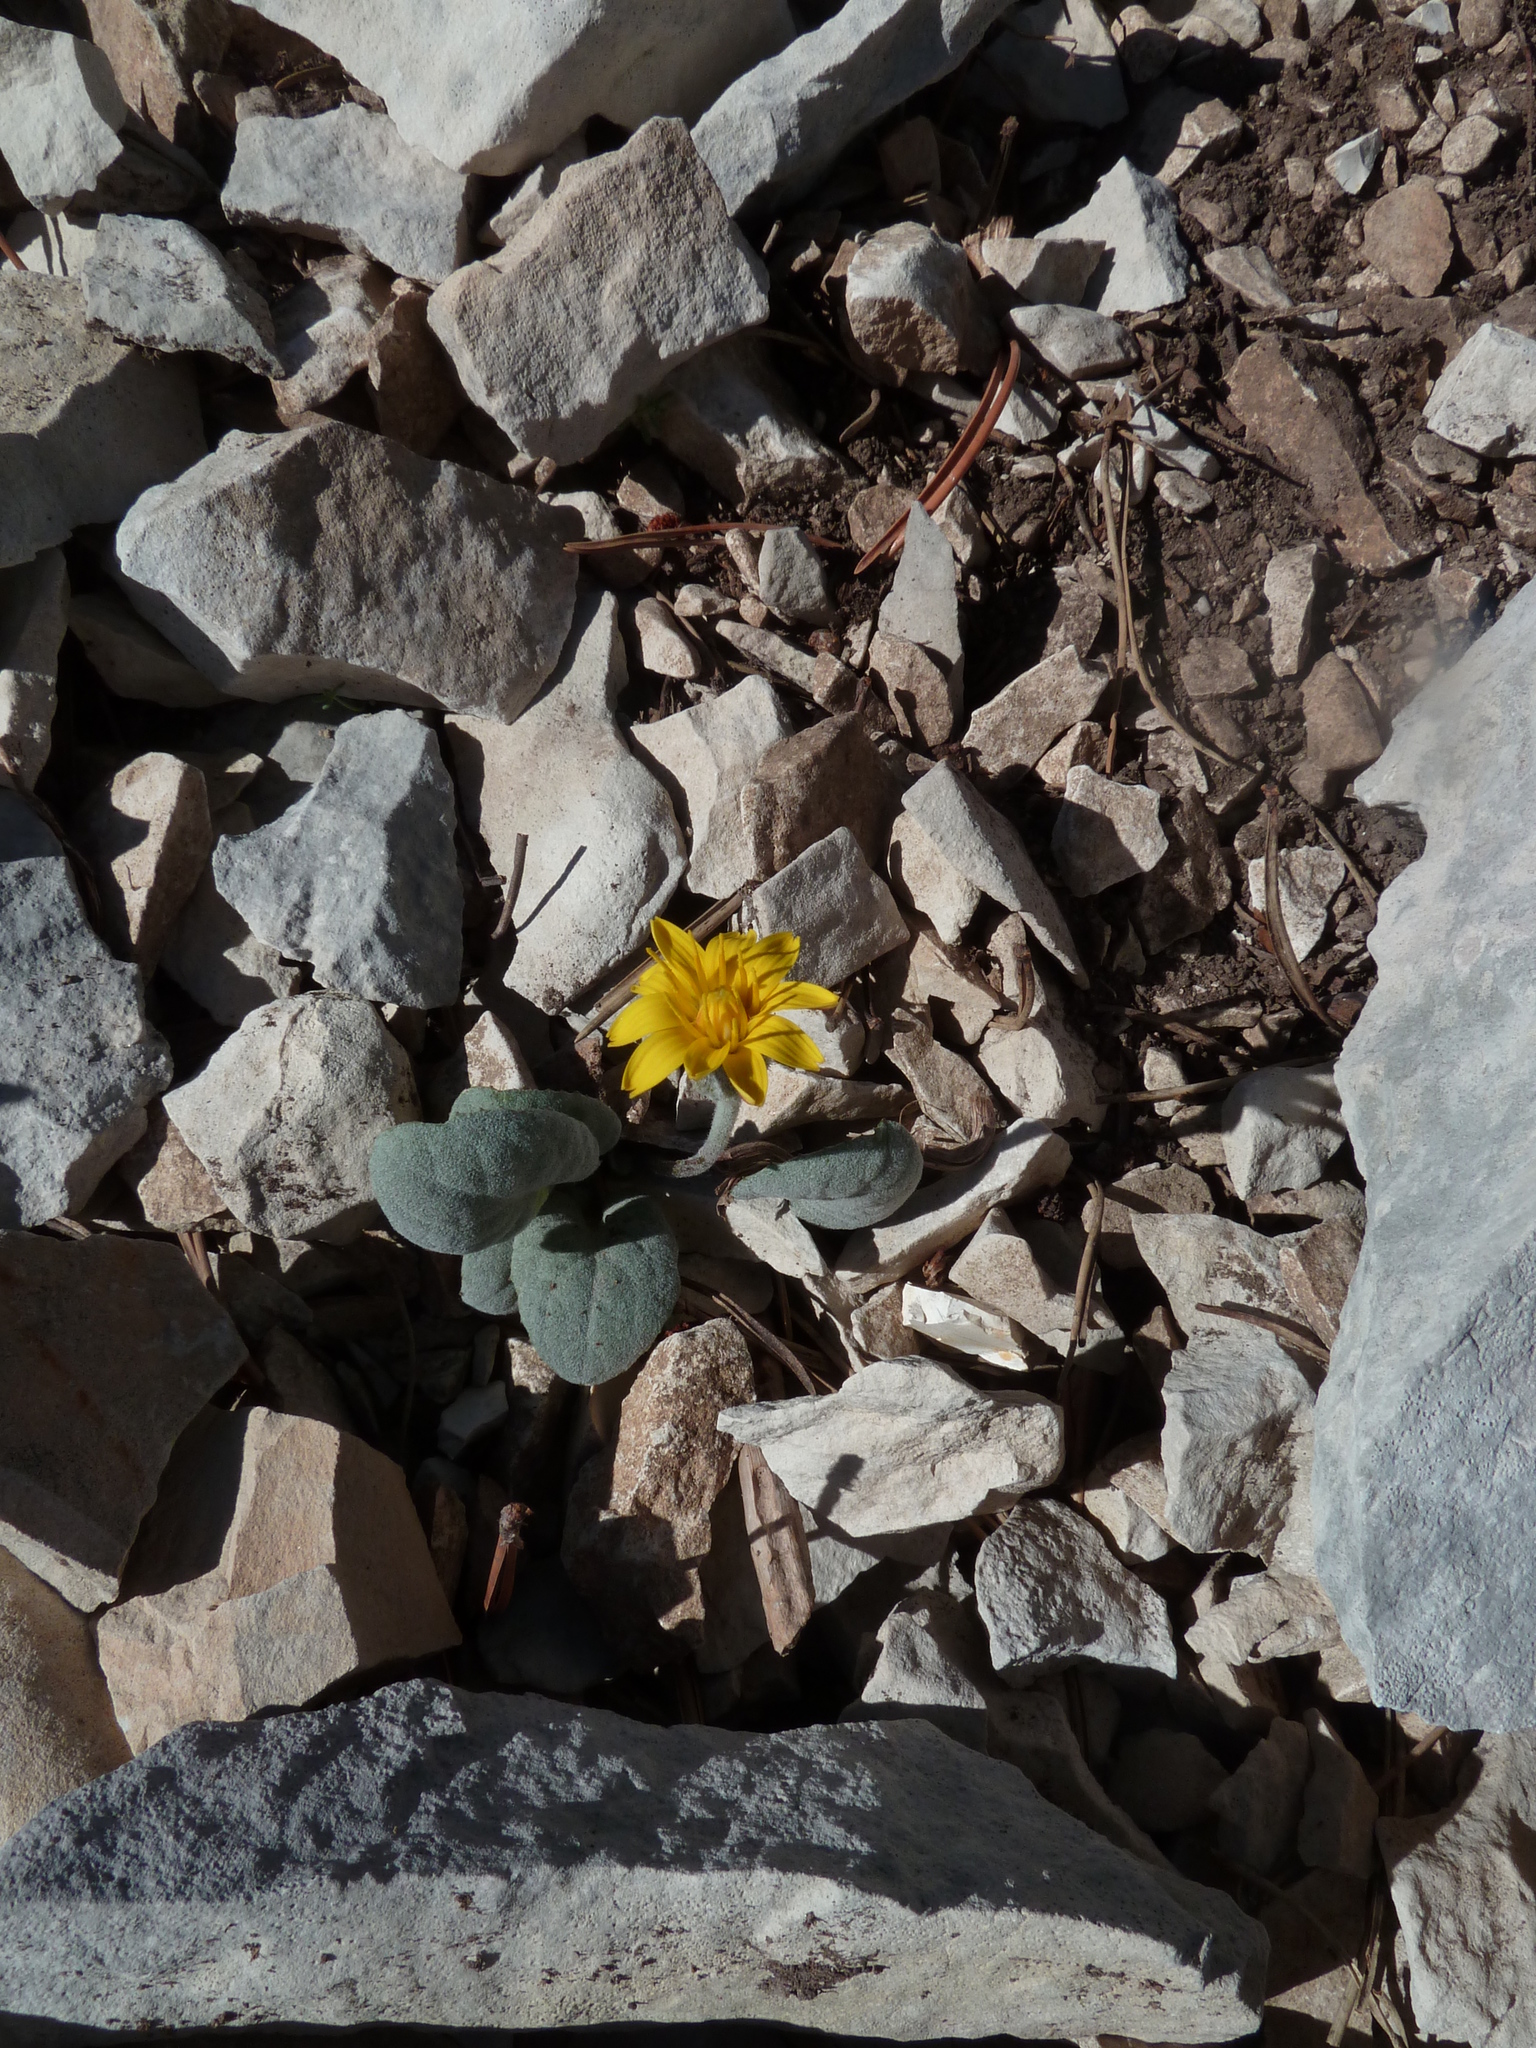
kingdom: Plantae
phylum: Tracheophyta
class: Magnoliopsida
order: Asterales
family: Asteraceae
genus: Crepis
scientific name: Crepis pygmaea
